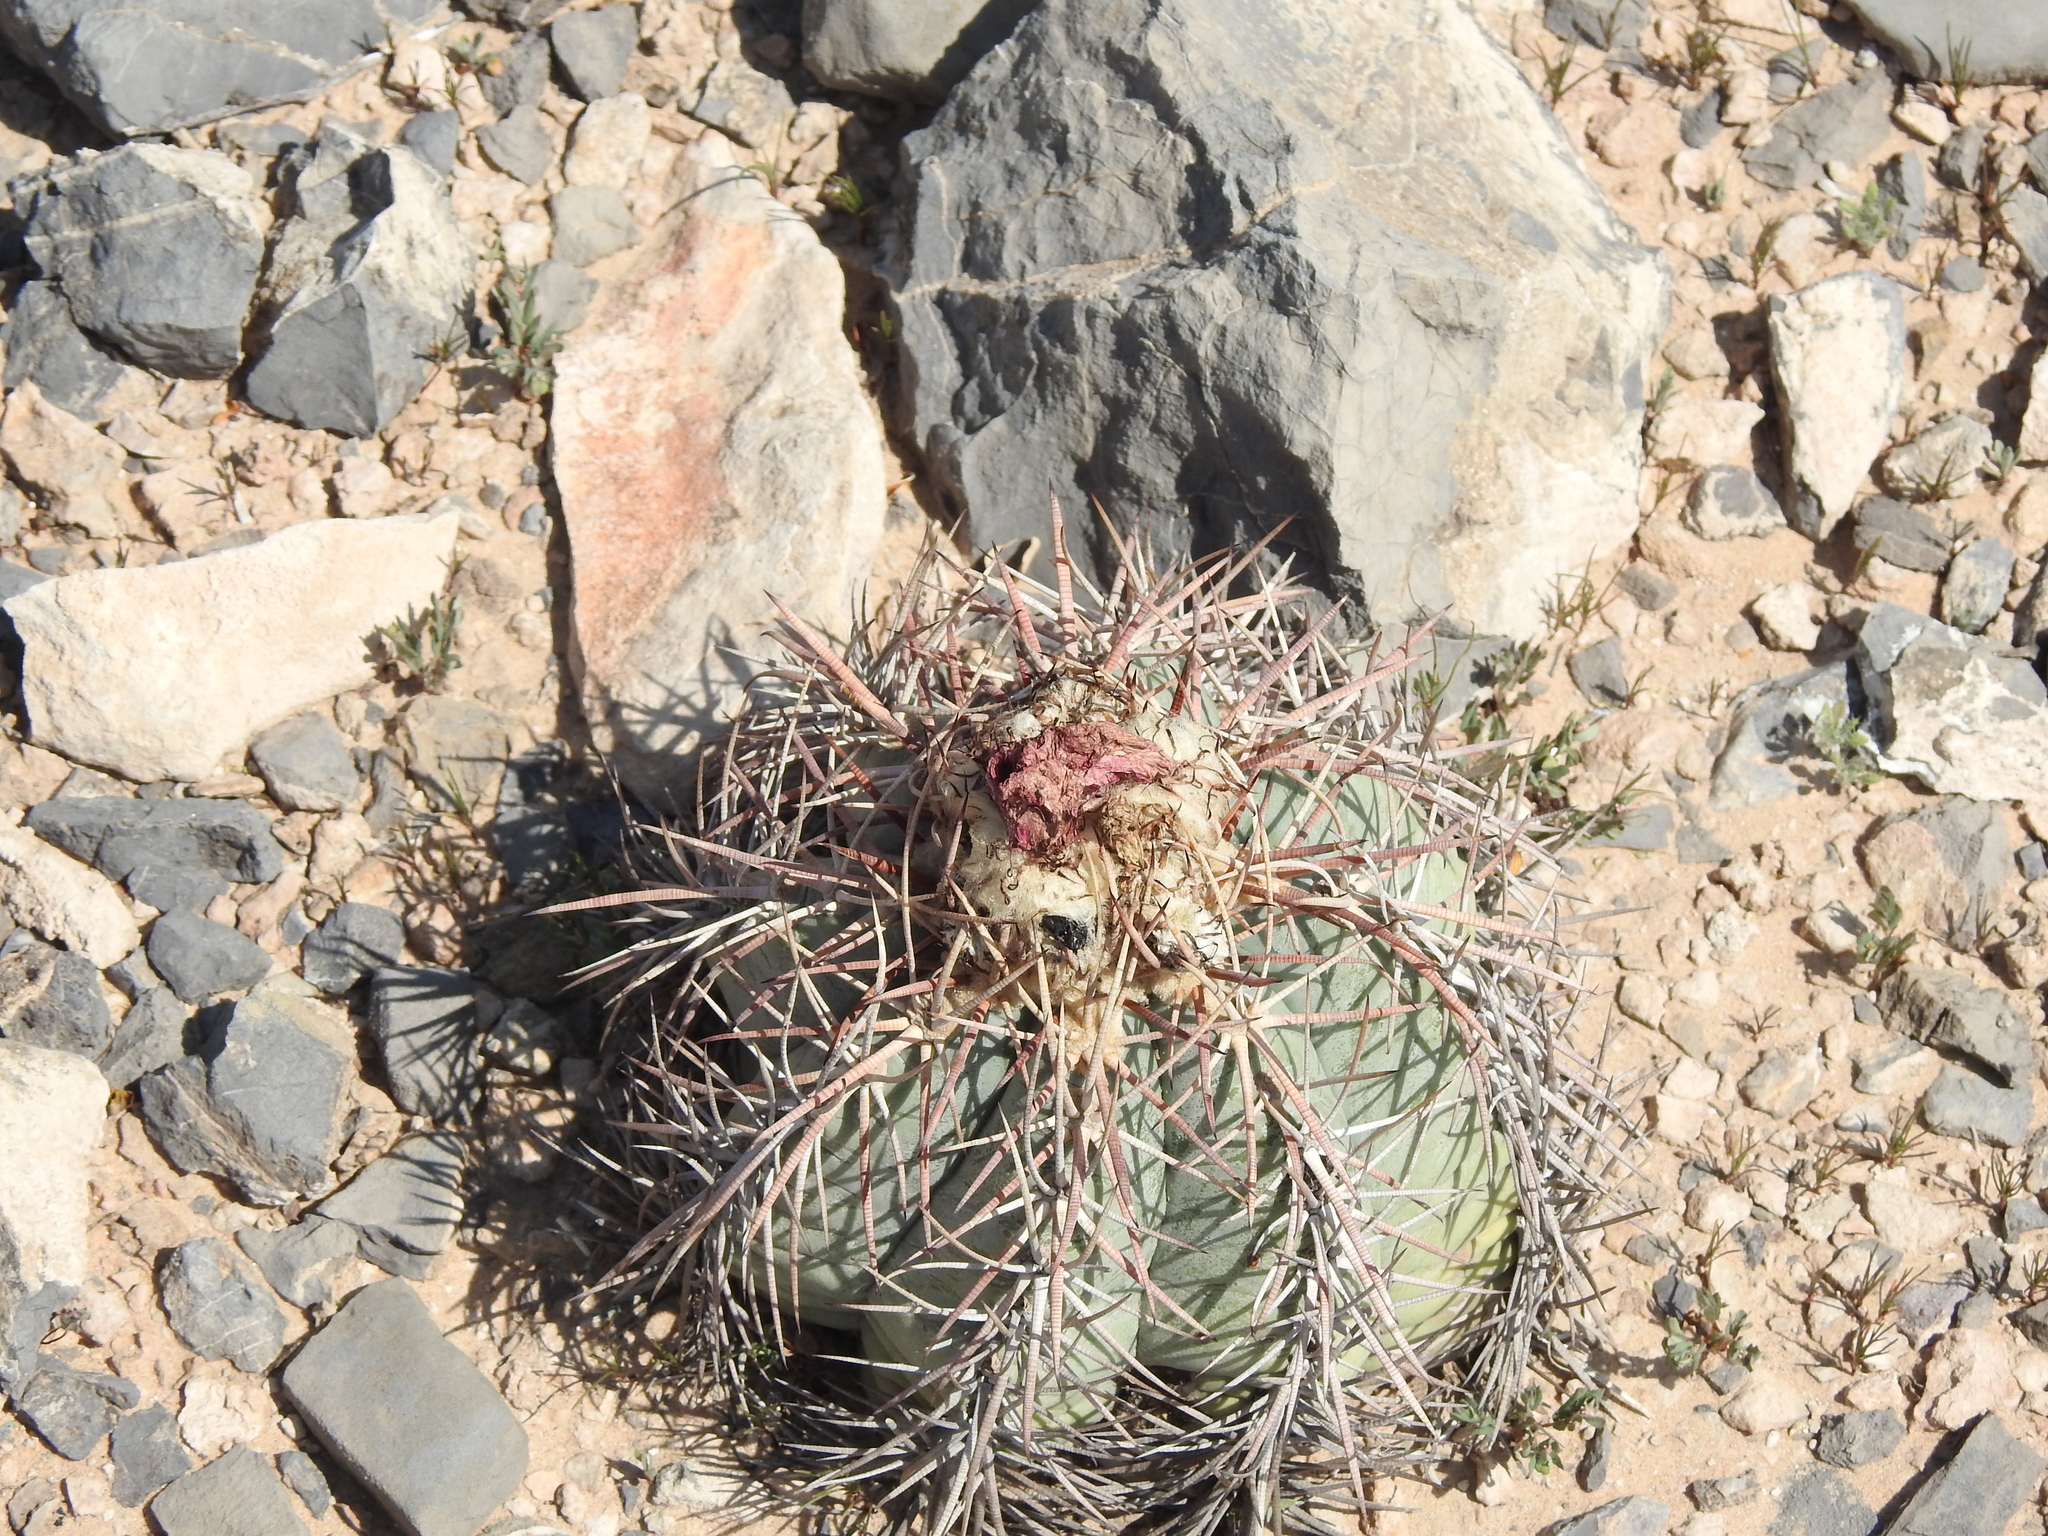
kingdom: Plantae
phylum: Tracheophyta
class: Magnoliopsida
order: Caryophyllales
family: Cactaceae
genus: Echinocactus
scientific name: Echinocactus horizonthalonius
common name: Devilshead
